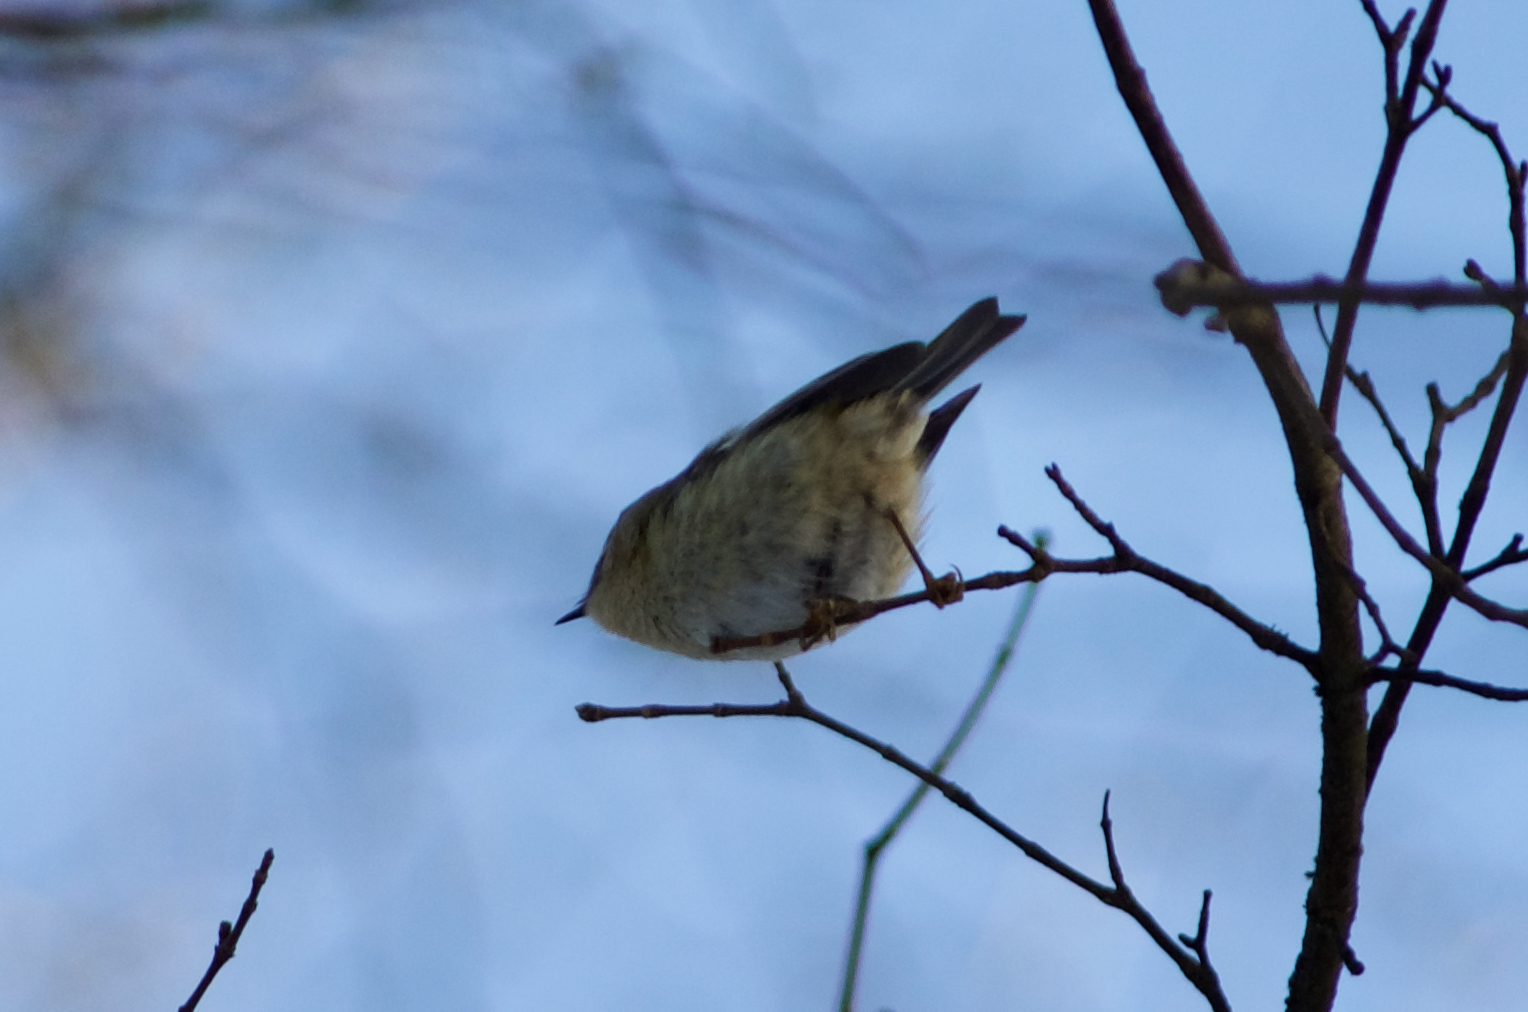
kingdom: Animalia
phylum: Chordata
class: Aves
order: Passeriformes
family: Regulidae
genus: Regulus
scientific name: Regulus regulus
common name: Goldcrest
